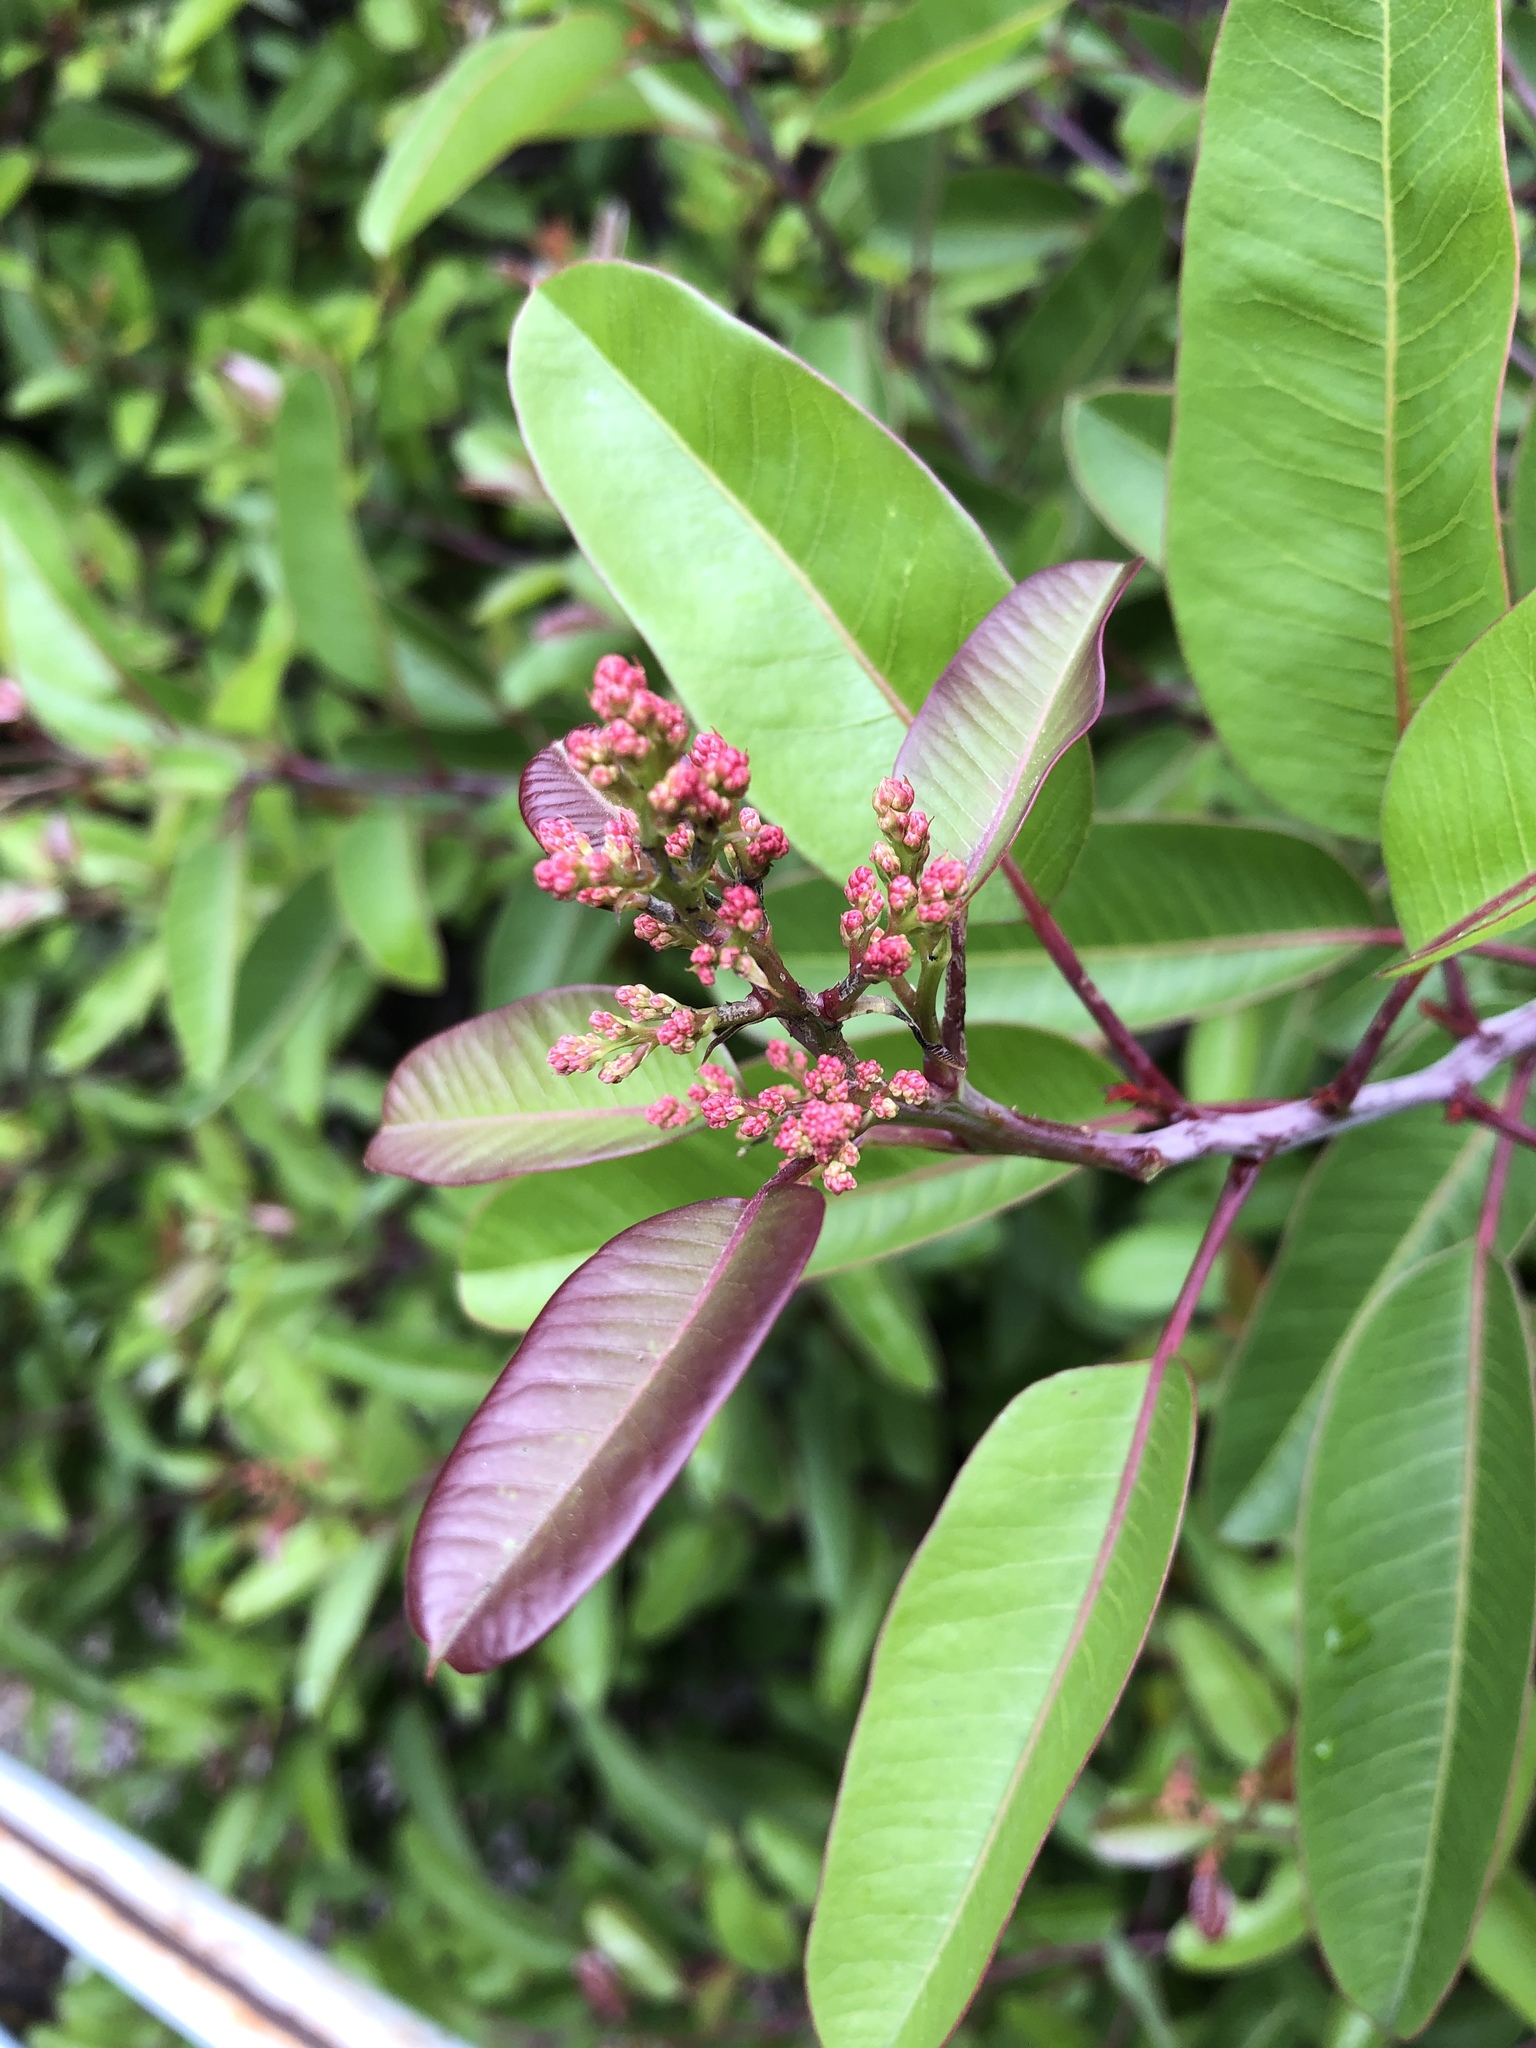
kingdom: Plantae
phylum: Tracheophyta
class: Magnoliopsida
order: Sapindales
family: Anacardiaceae
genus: Malosma
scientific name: Malosma laurina
